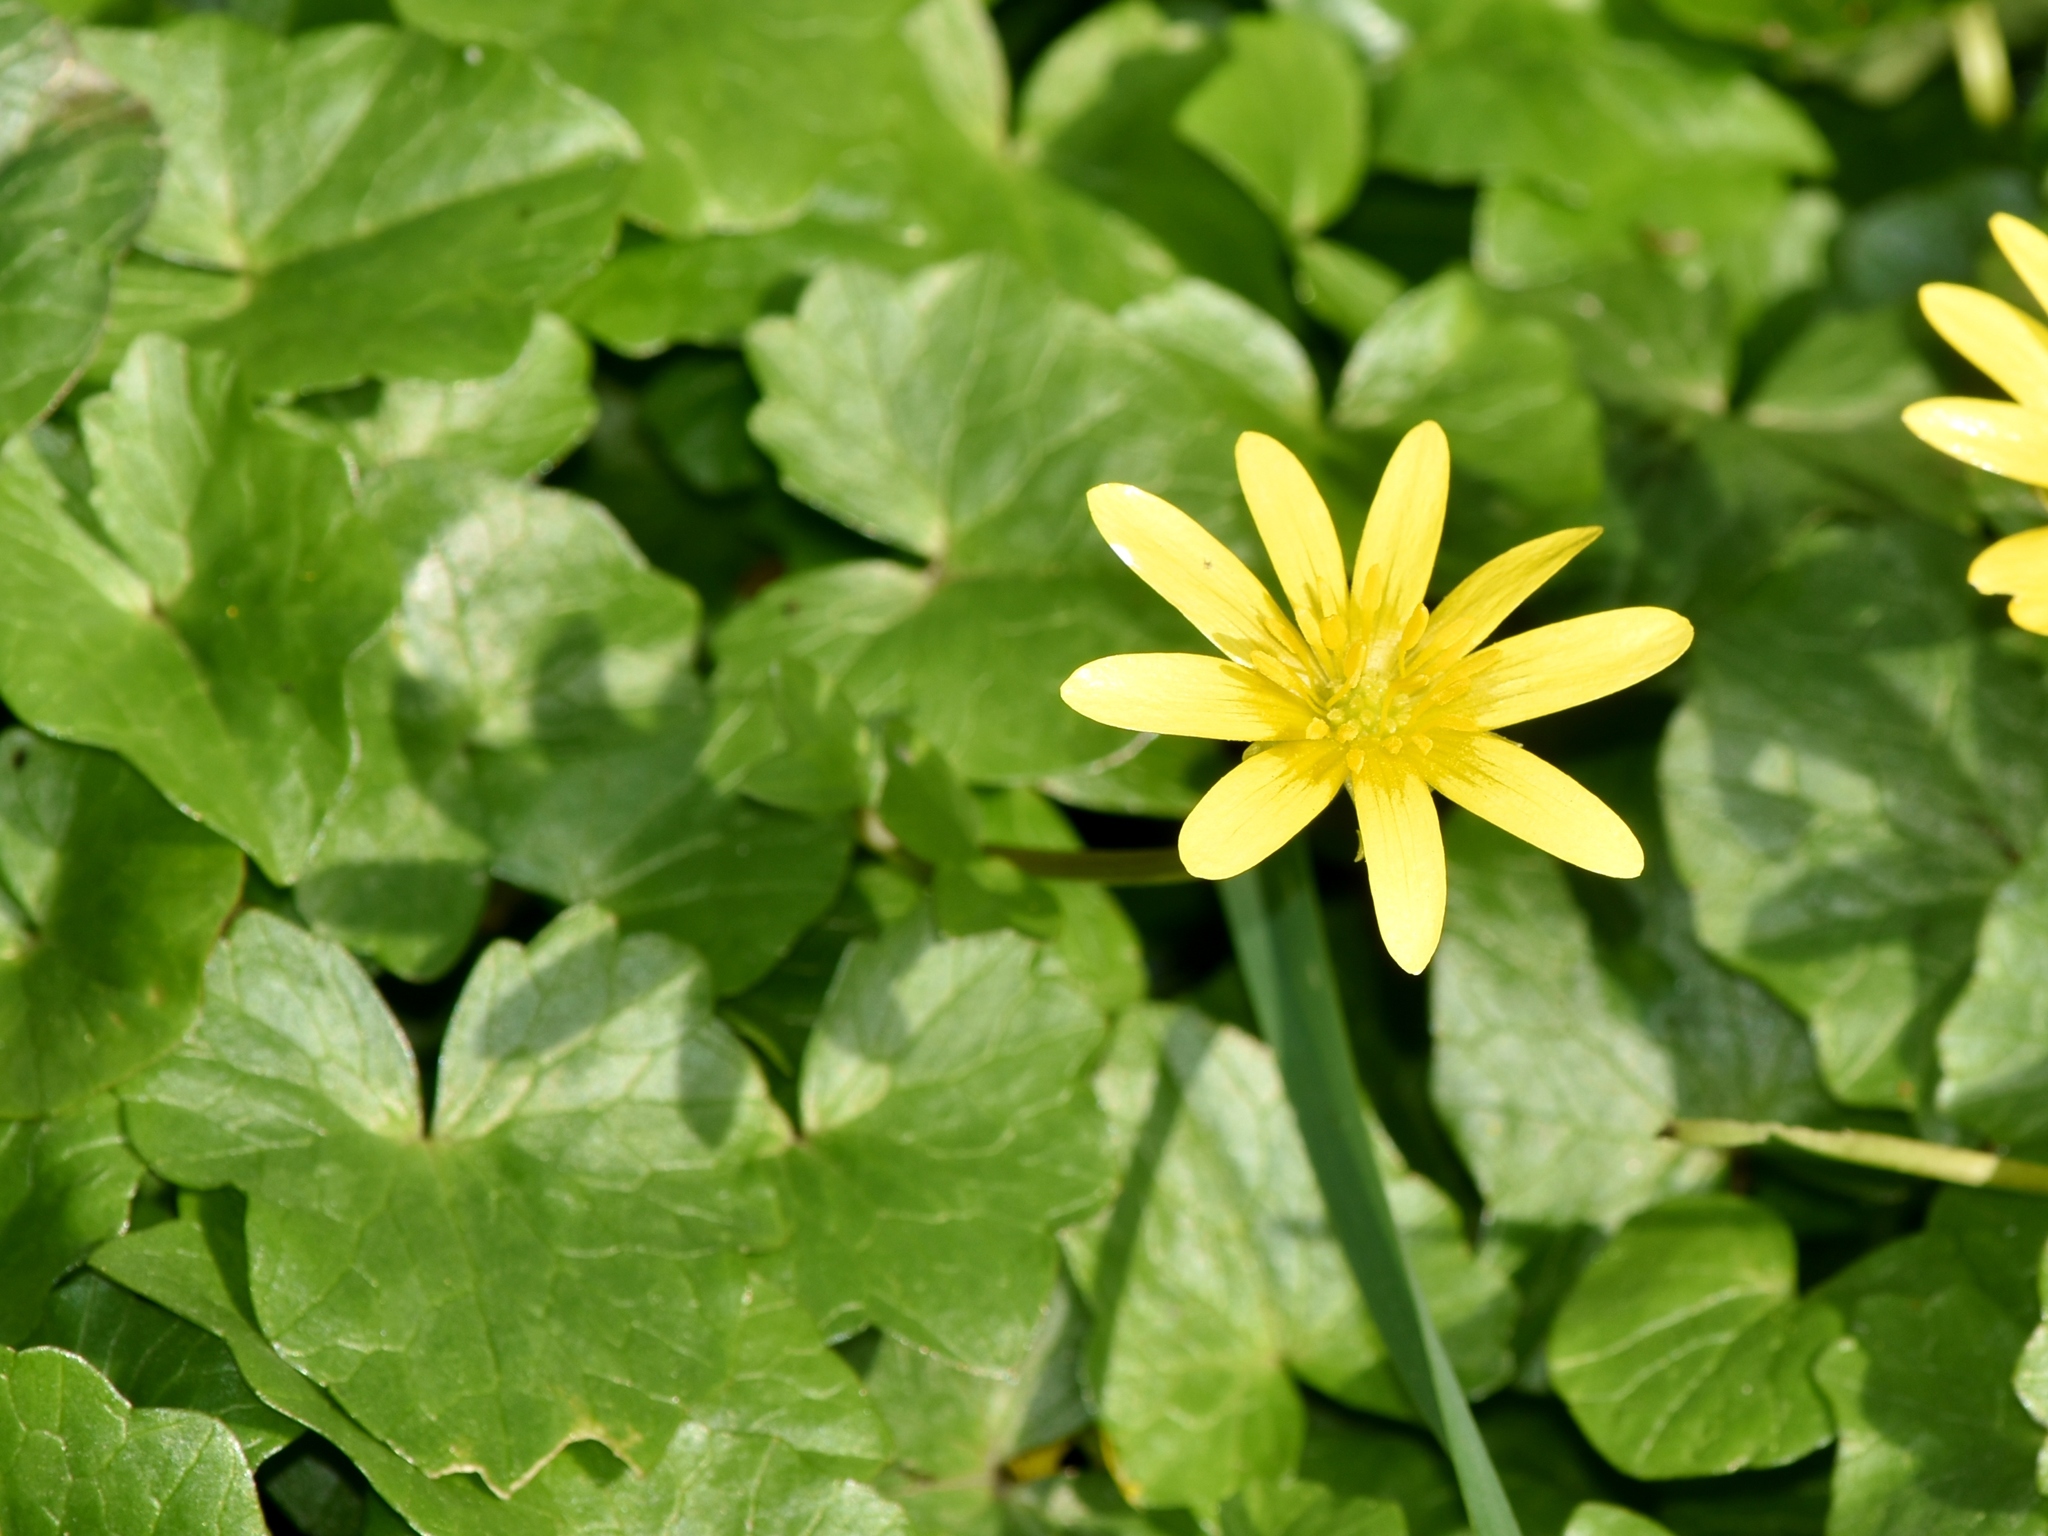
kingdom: Plantae
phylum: Tracheophyta
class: Magnoliopsida
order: Ranunculales
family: Ranunculaceae
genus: Ficaria
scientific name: Ficaria verna
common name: Lesser celandine
